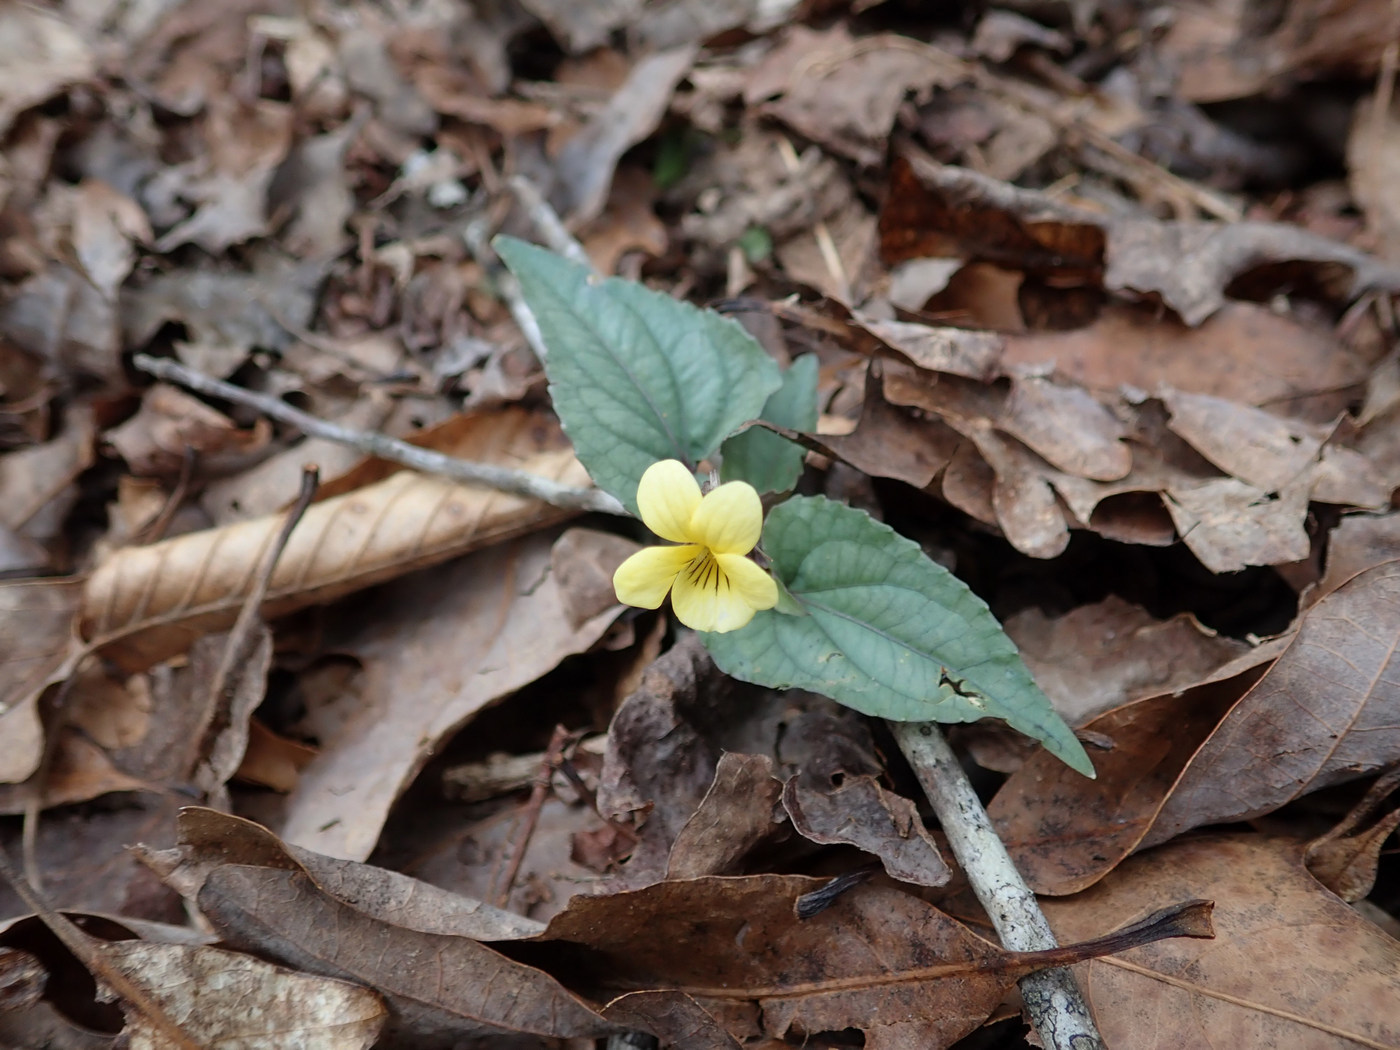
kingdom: Plantae
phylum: Tracheophyta
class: Magnoliopsida
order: Malpighiales
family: Violaceae
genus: Viola
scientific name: Viola hastata
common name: Spear-leaf violet
